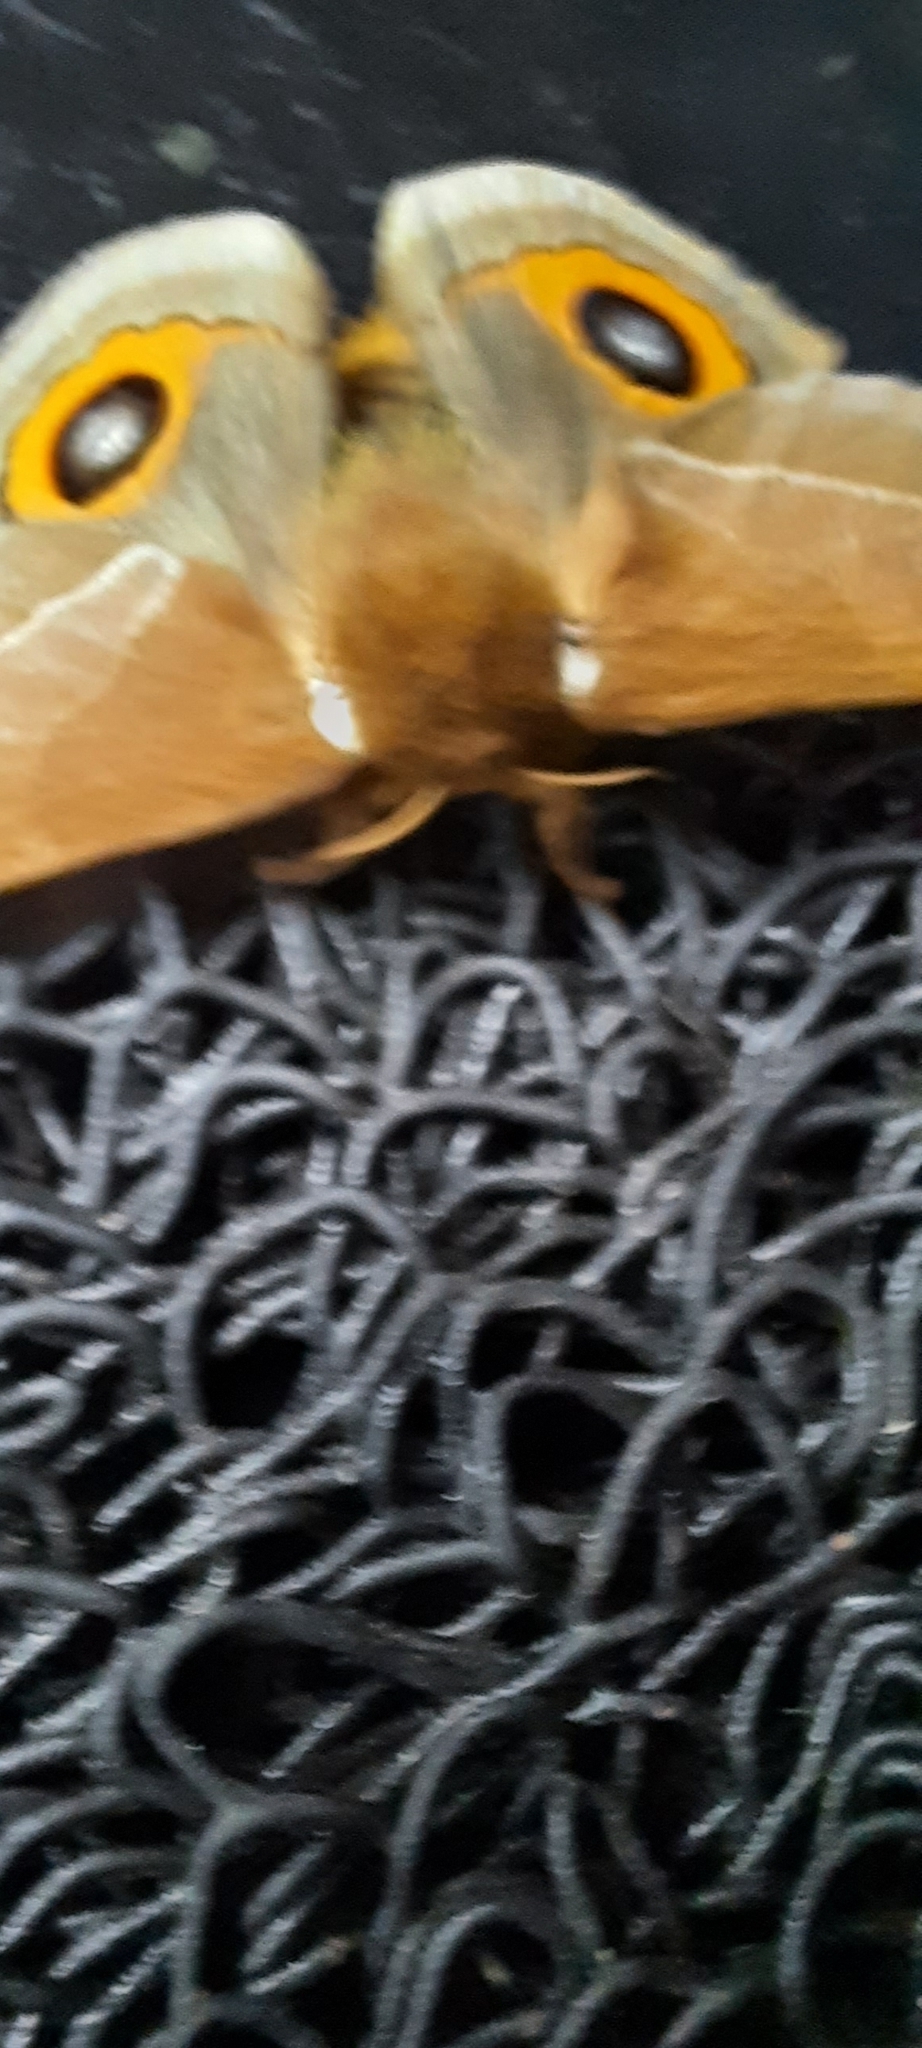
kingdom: Animalia
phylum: Arthropoda
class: Insecta
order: Lepidoptera
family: Saturniidae
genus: Automeris
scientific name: Automeris naranja
